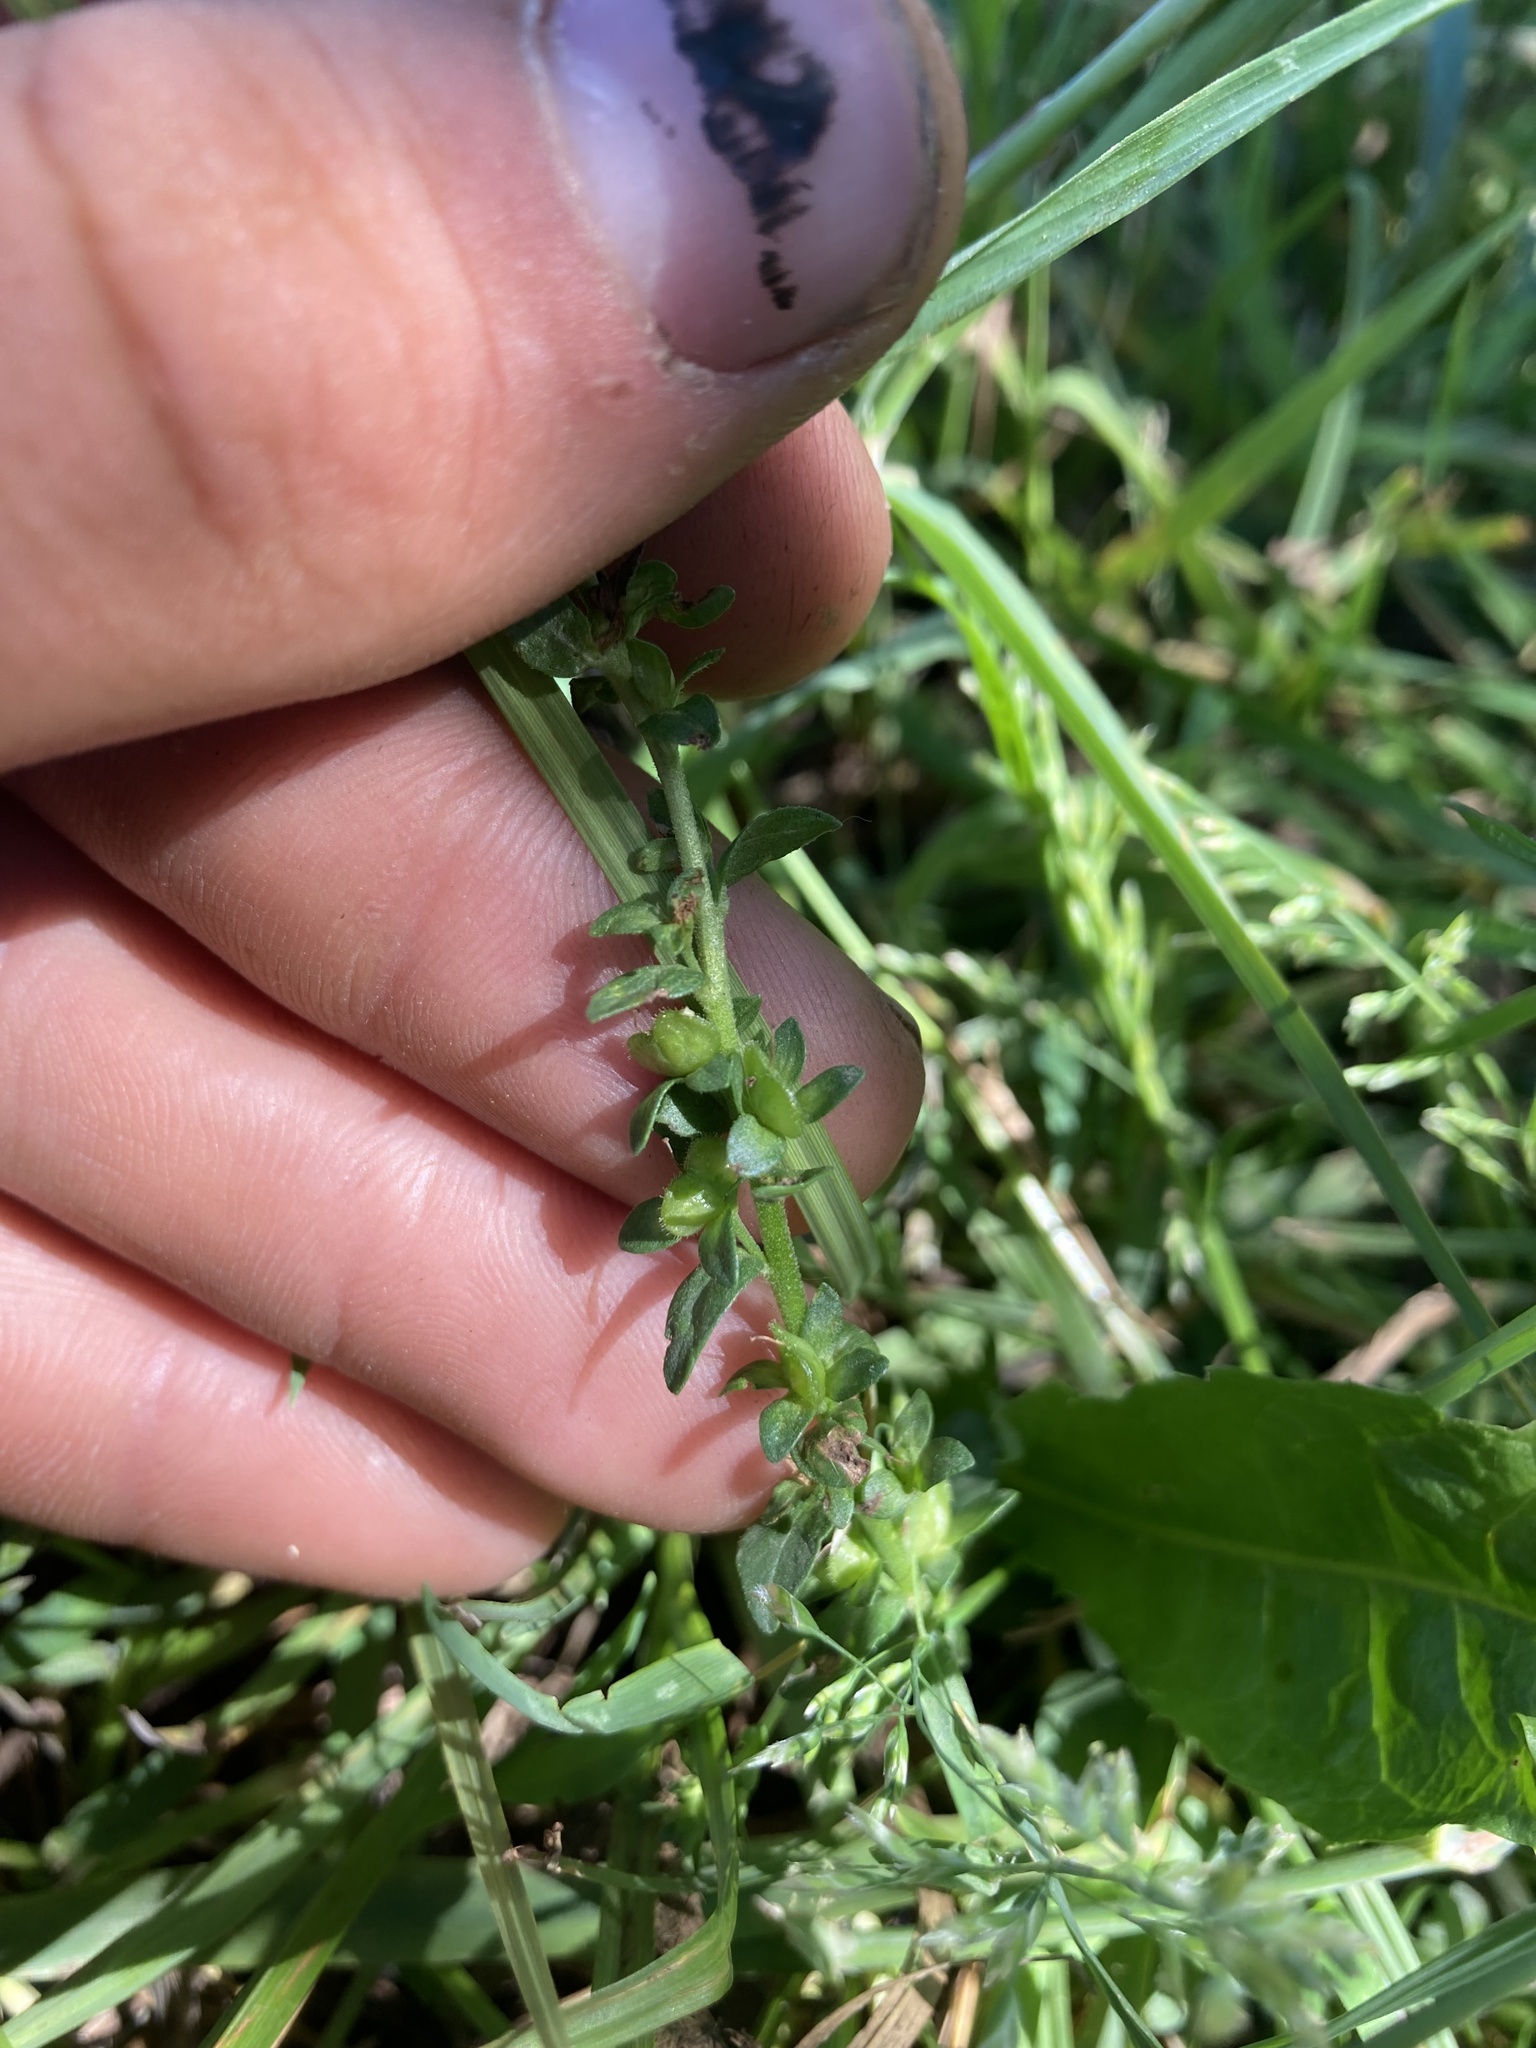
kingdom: Plantae
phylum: Tracheophyta
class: Magnoliopsida
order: Lamiales
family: Plantaginaceae
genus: Veronica
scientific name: Veronica serpyllifolia
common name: Thyme-leaved speedwell
